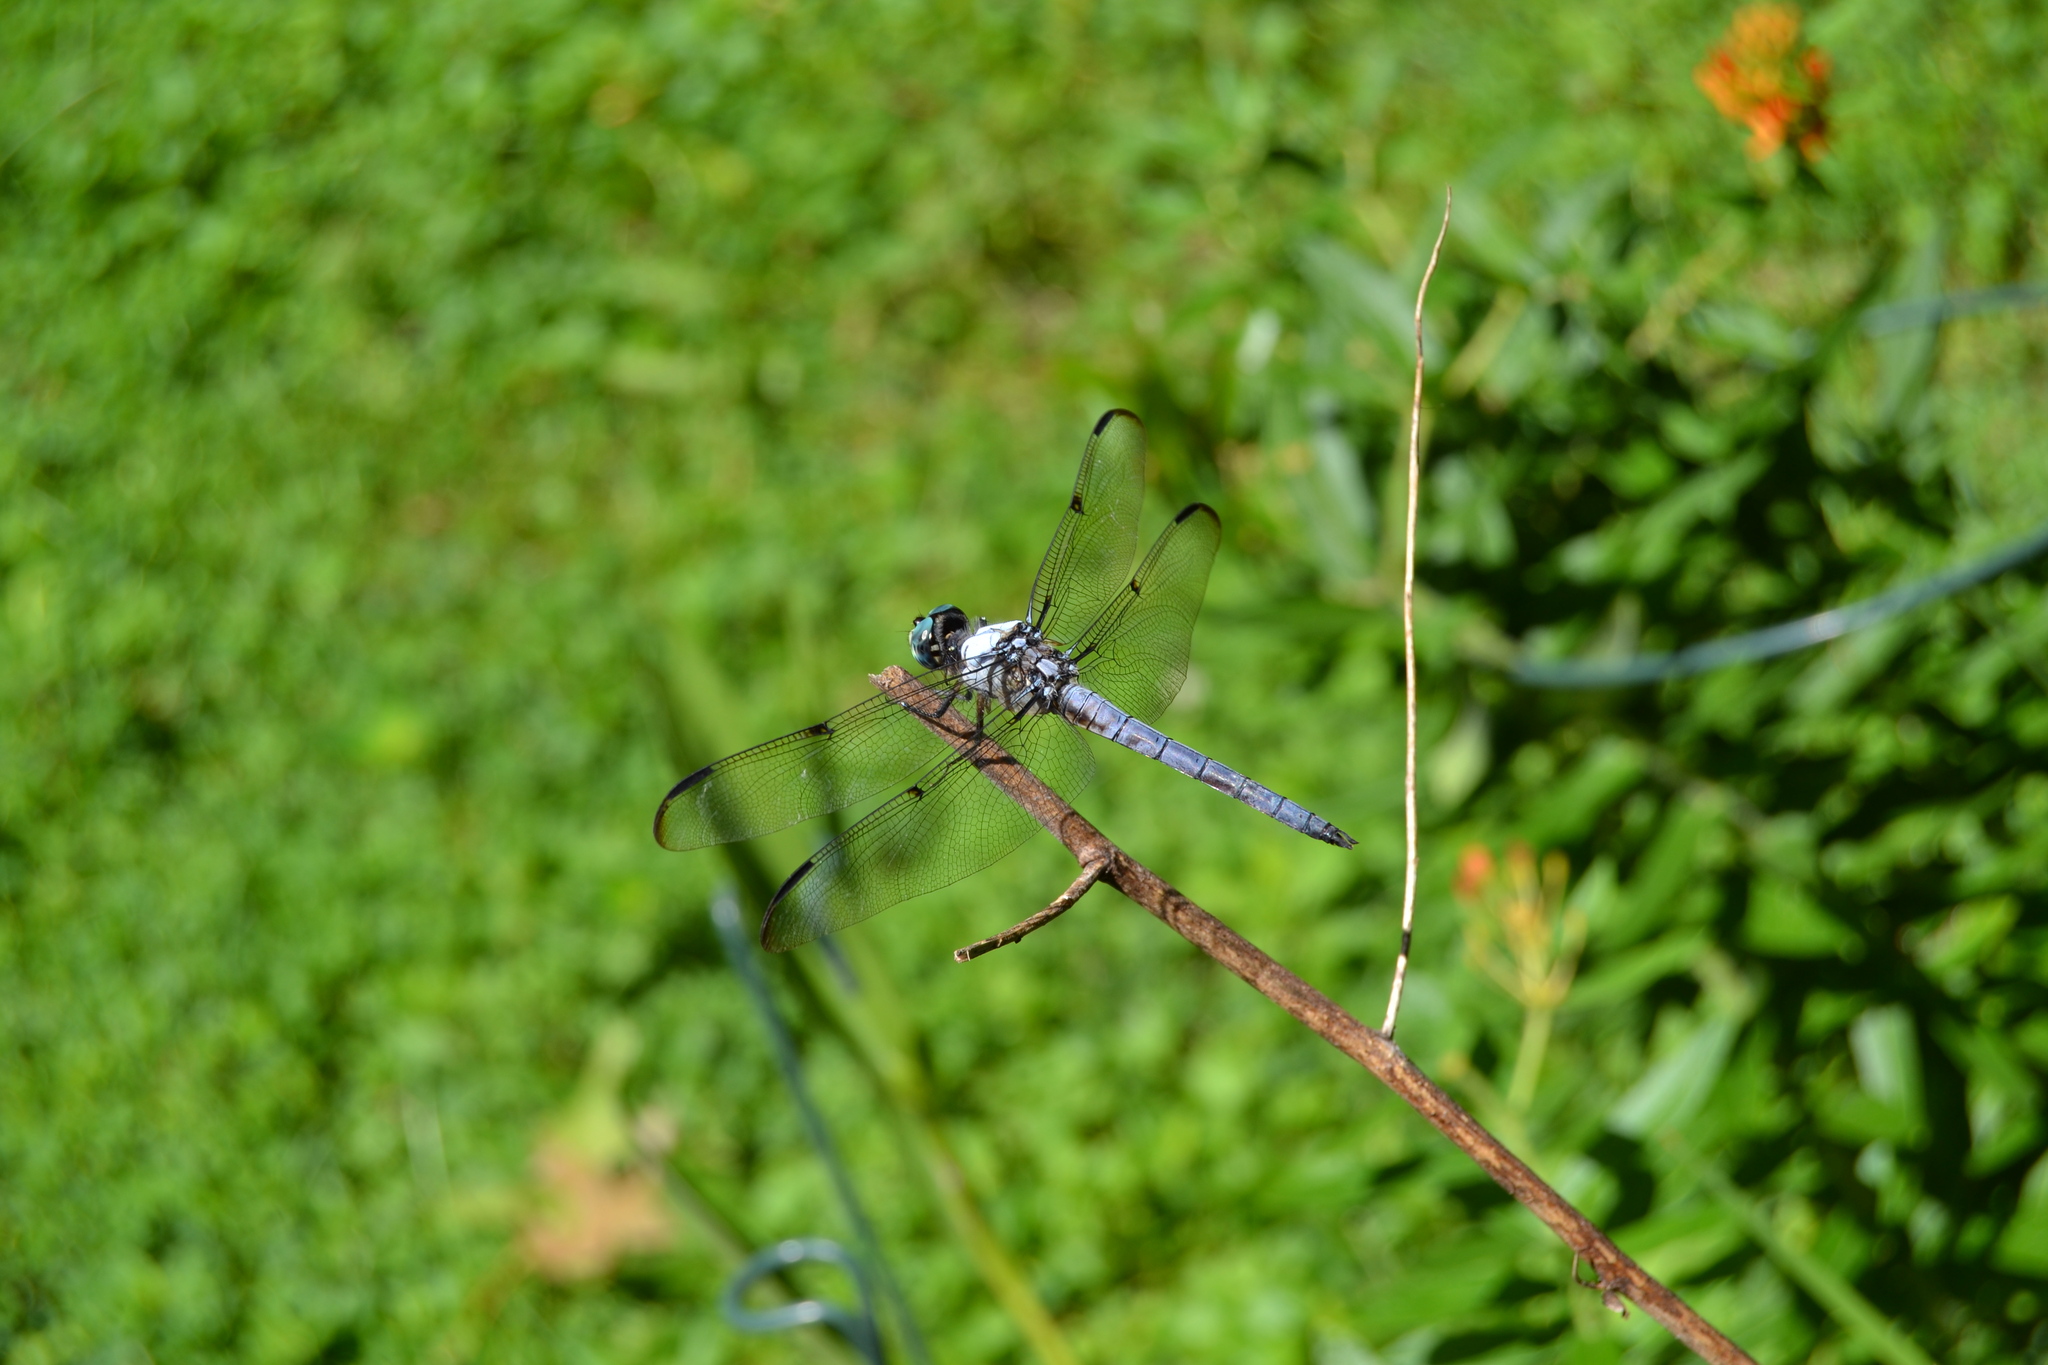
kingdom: Animalia
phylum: Arthropoda
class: Insecta
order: Odonata
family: Libellulidae
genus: Libellula
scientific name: Libellula vibrans
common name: Great blue skimmer
